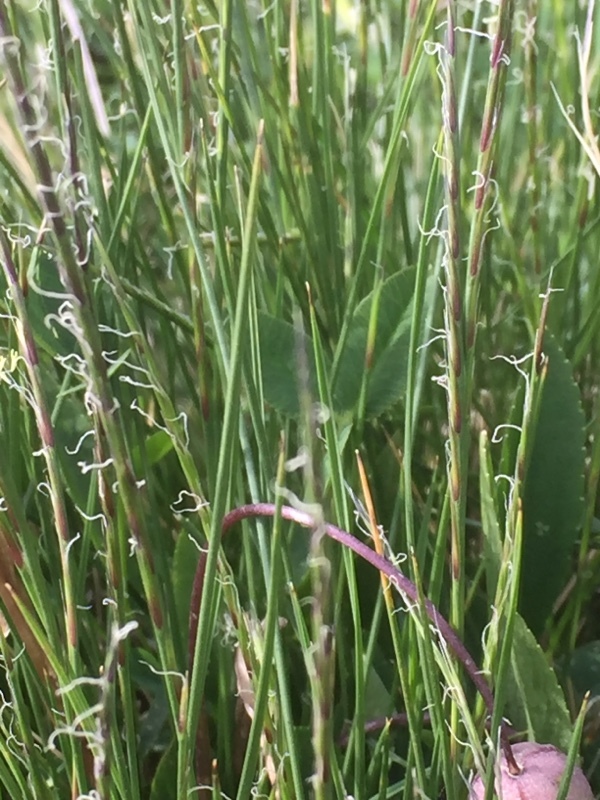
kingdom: Plantae
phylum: Tracheophyta
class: Liliopsida
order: Poales
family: Poaceae
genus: Nardus
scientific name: Nardus stricta
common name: Mat-grass
